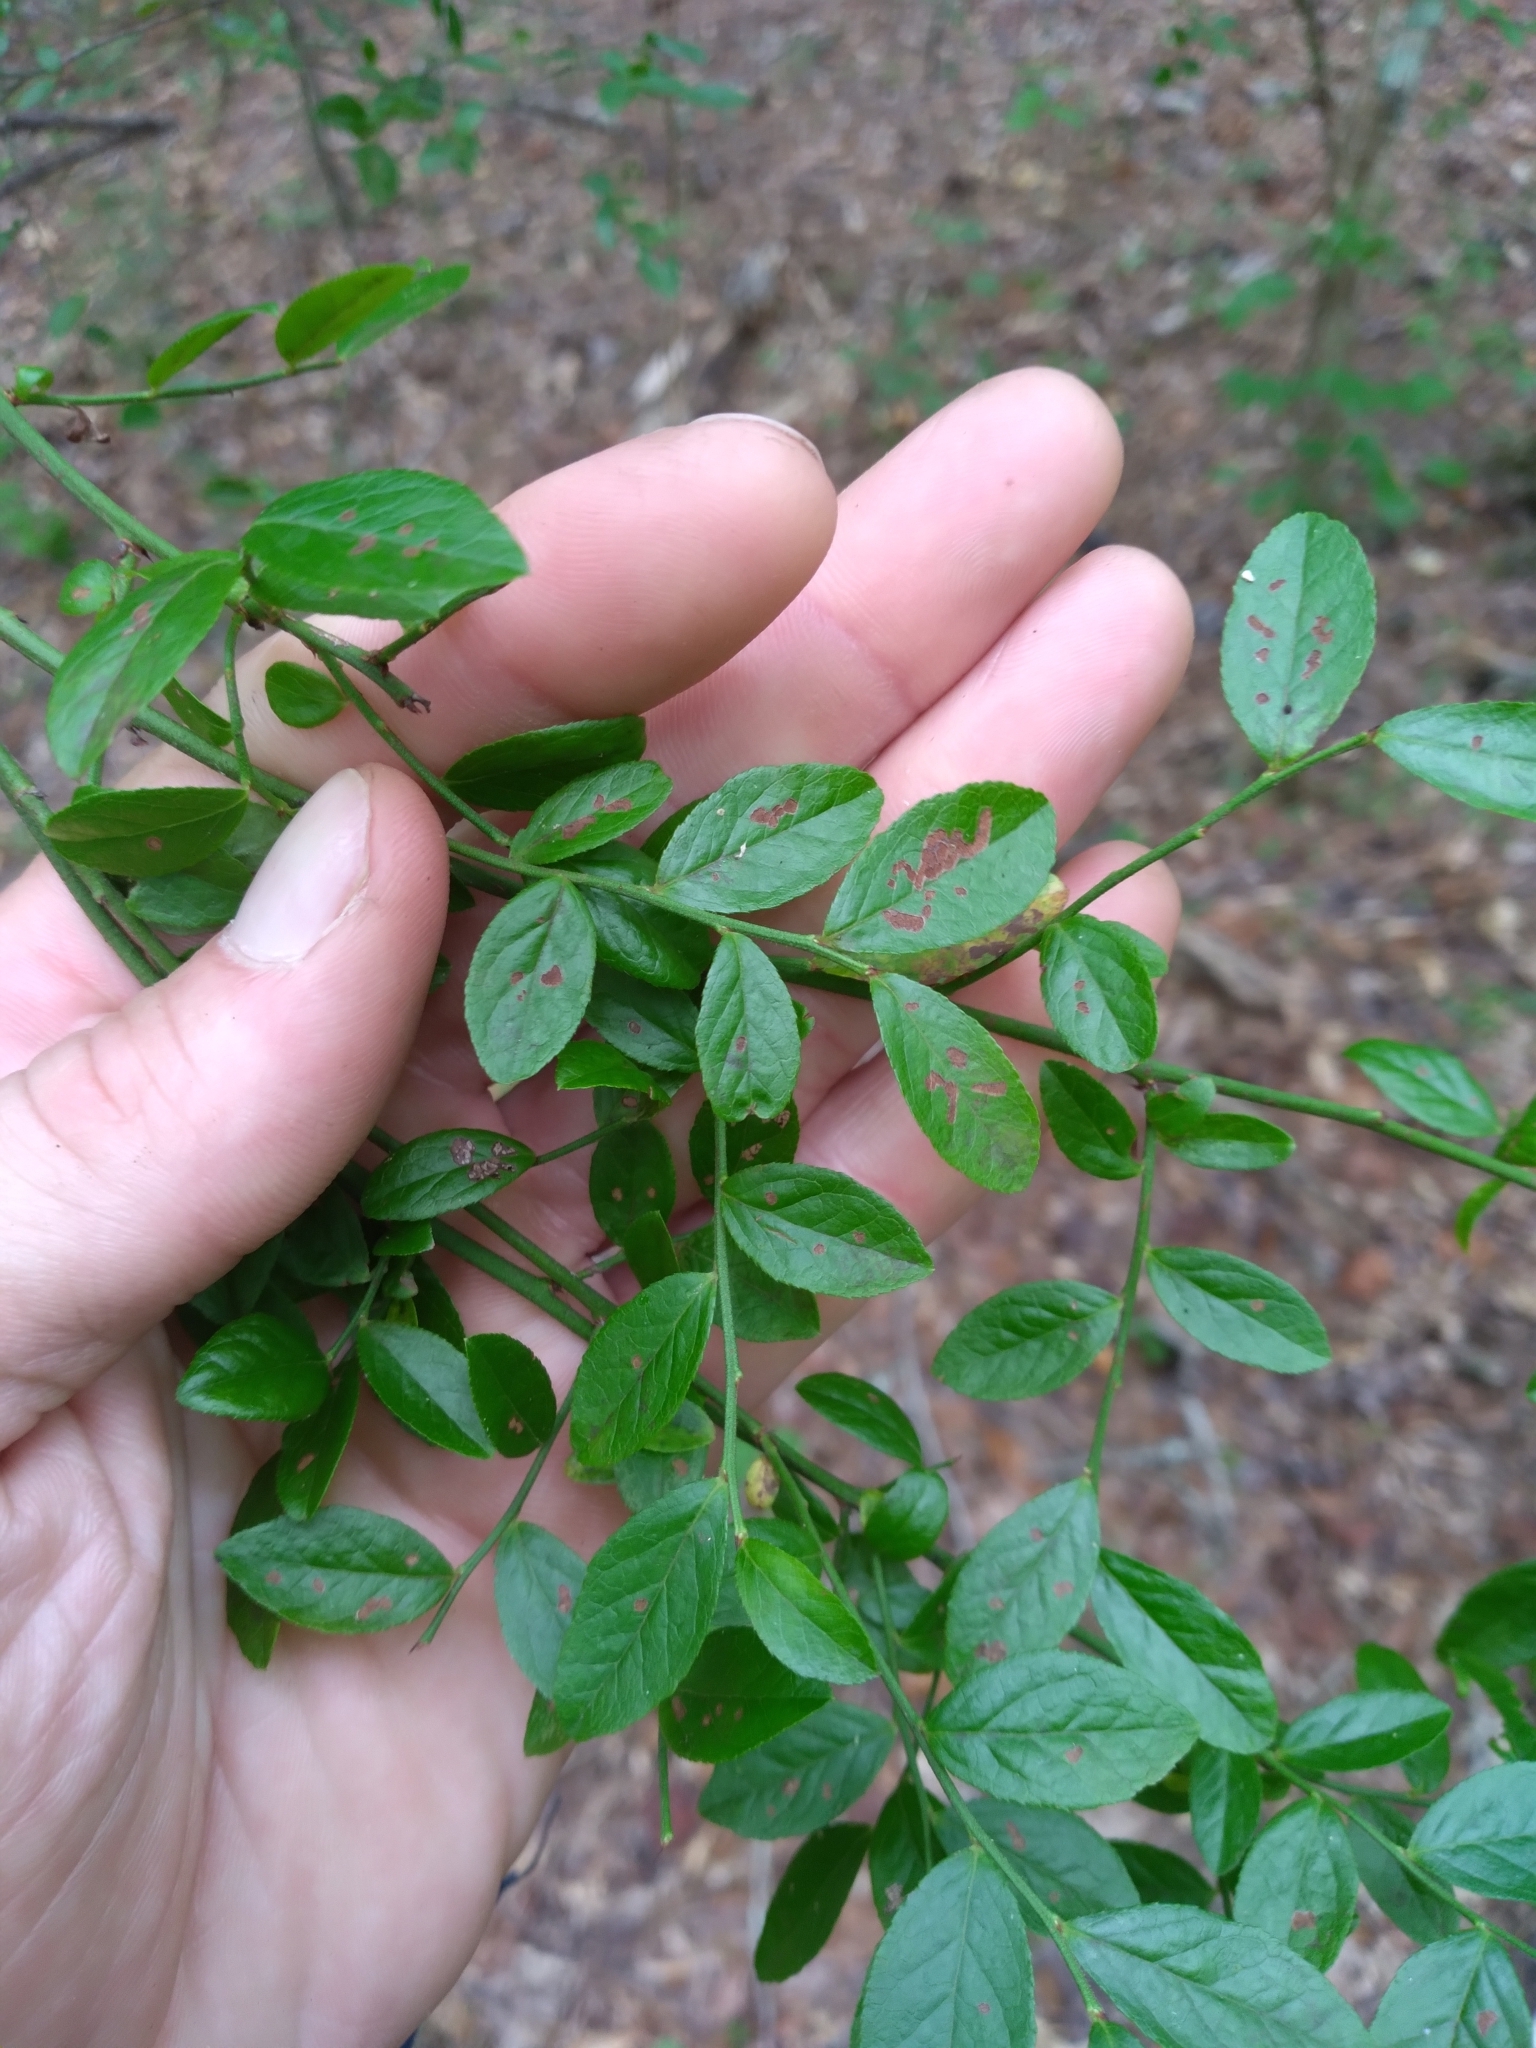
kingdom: Plantae
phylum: Tracheophyta
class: Magnoliopsida
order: Ericales
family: Ericaceae
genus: Vaccinium
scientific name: Vaccinium corymbosum
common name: Blueberry
